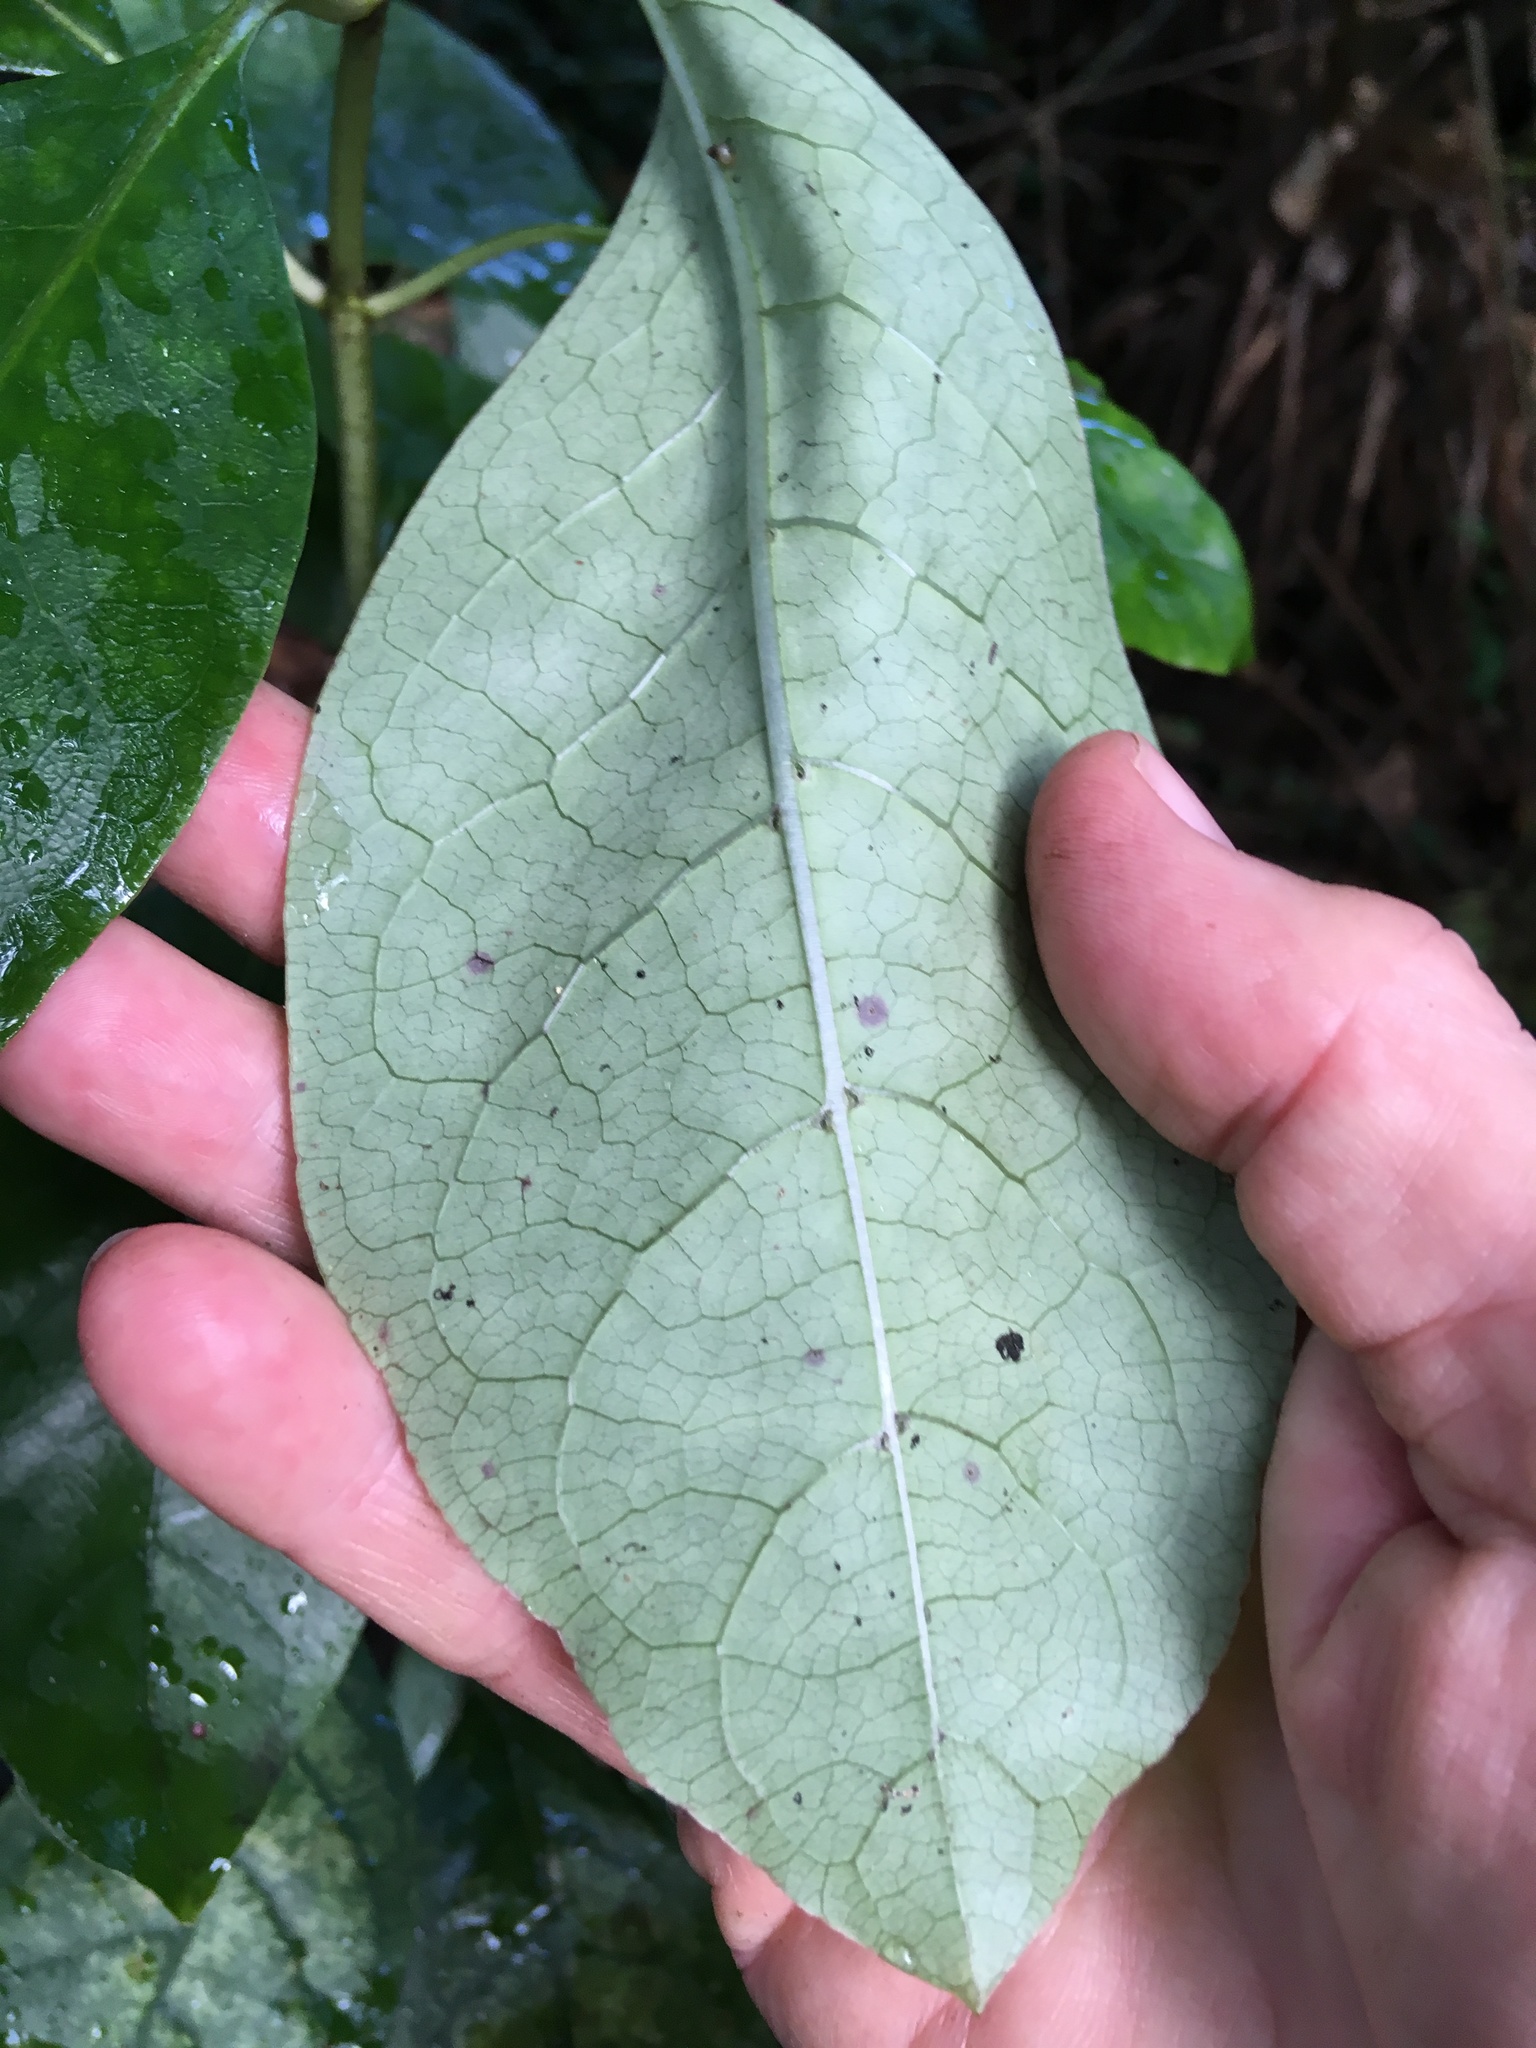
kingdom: Plantae
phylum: Tracheophyta
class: Magnoliopsida
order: Gentianales
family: Rubiaceae
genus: Coprosma
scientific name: Coprosma autumnalis
